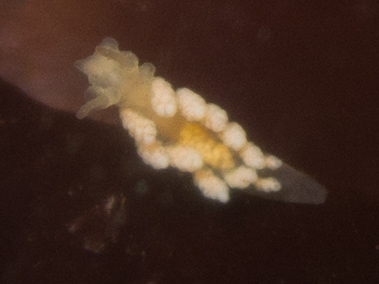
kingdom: Animalia
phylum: Mollusca
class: Gastropoda
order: Nudibranchia
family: Dotidae
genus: Doto
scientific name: Doto amyra
